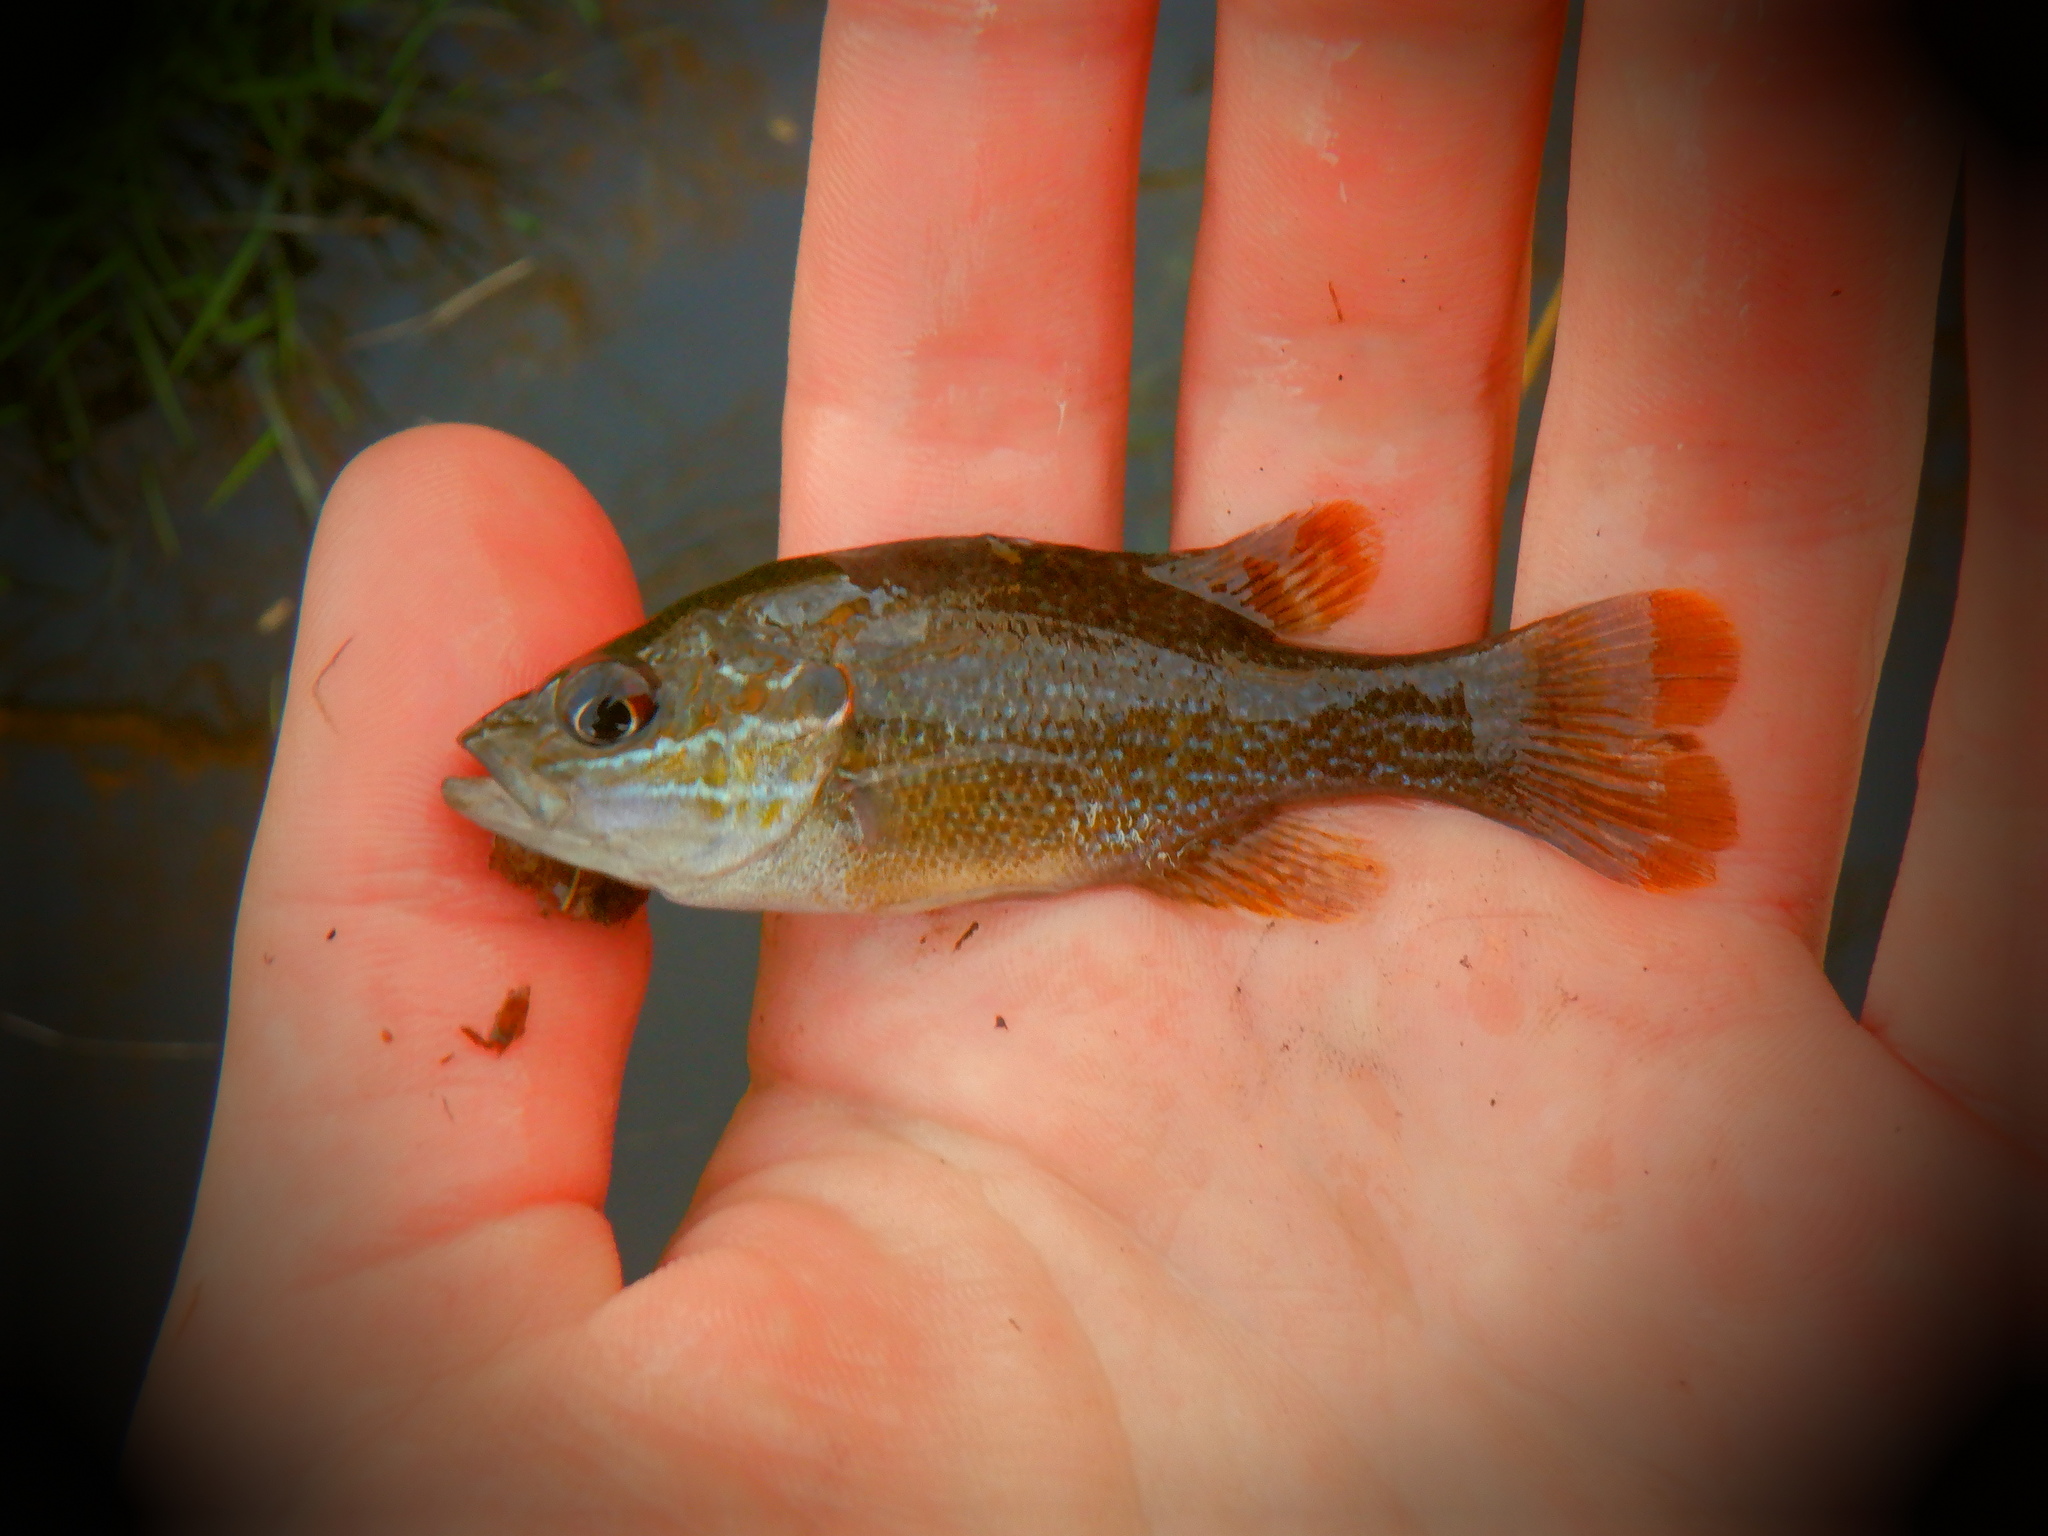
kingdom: Animalia
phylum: Chordata
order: Perciformes
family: Centrarchidae
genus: Lepomis
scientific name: Lepomis cyanellus
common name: Green sunfish
